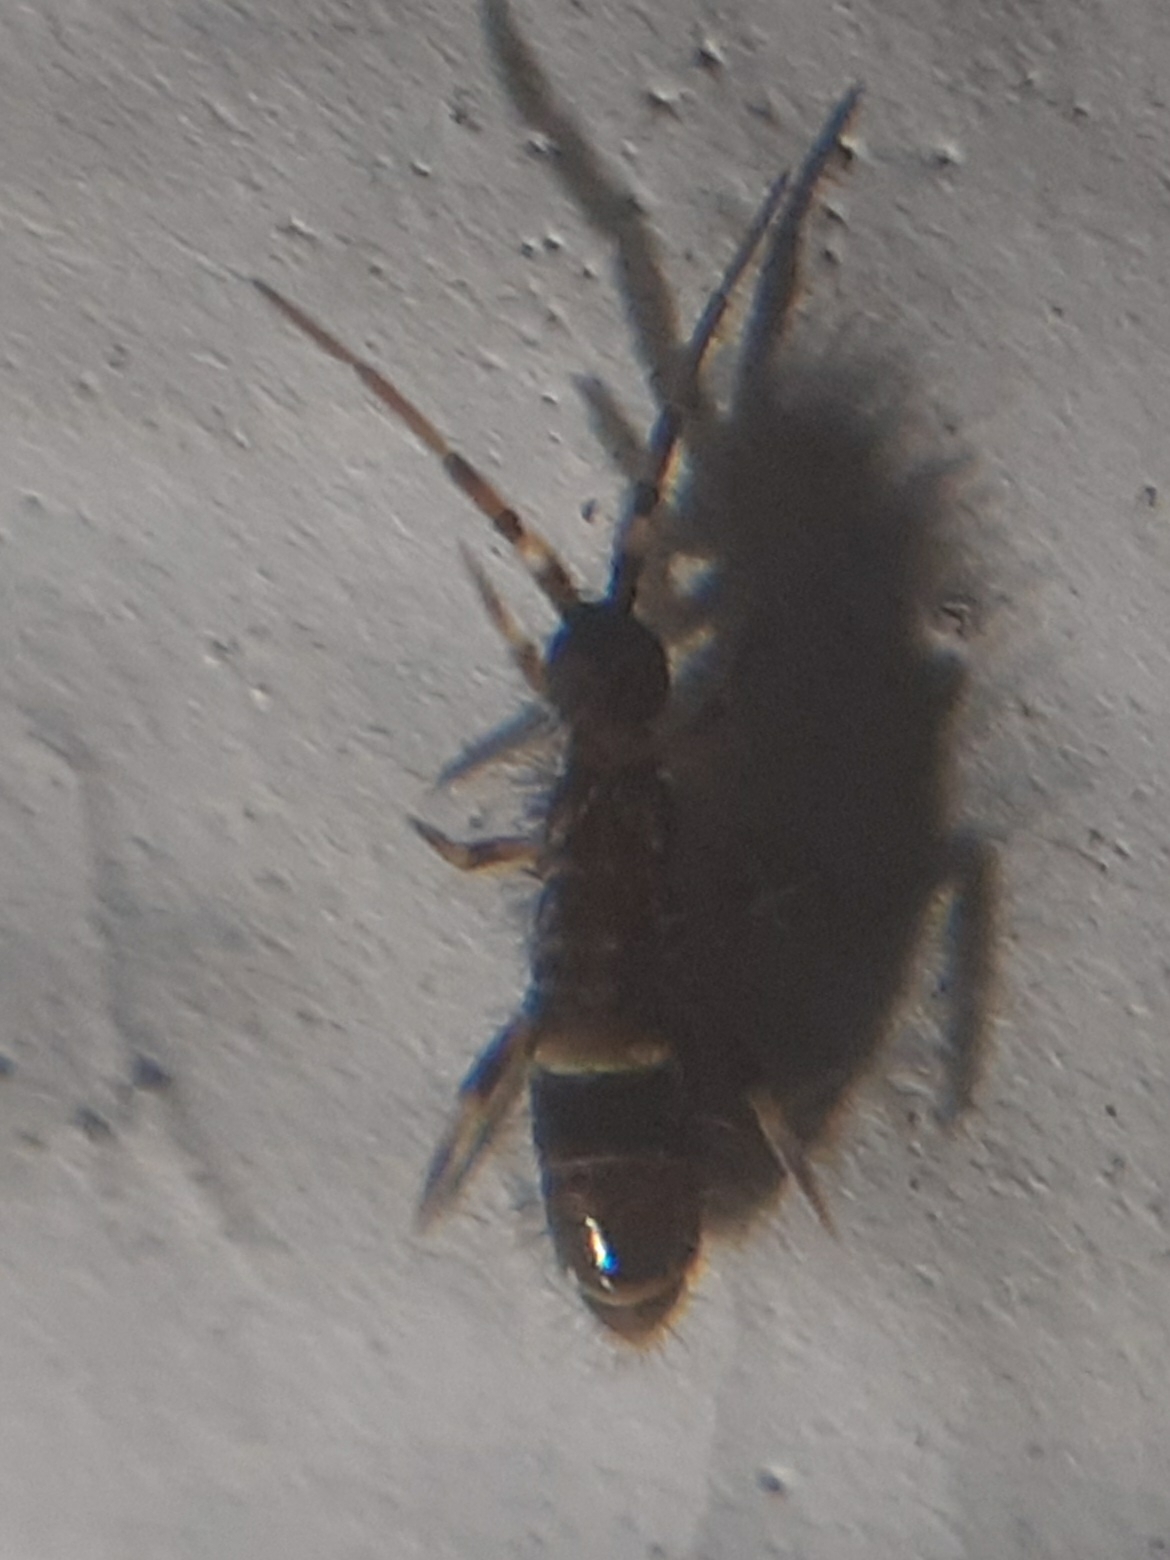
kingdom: Animalia
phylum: Arthropoda
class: Collembola
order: Entomobryomorpha
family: Orchesellidae
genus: Orchesella
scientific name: Orchesella cincta
